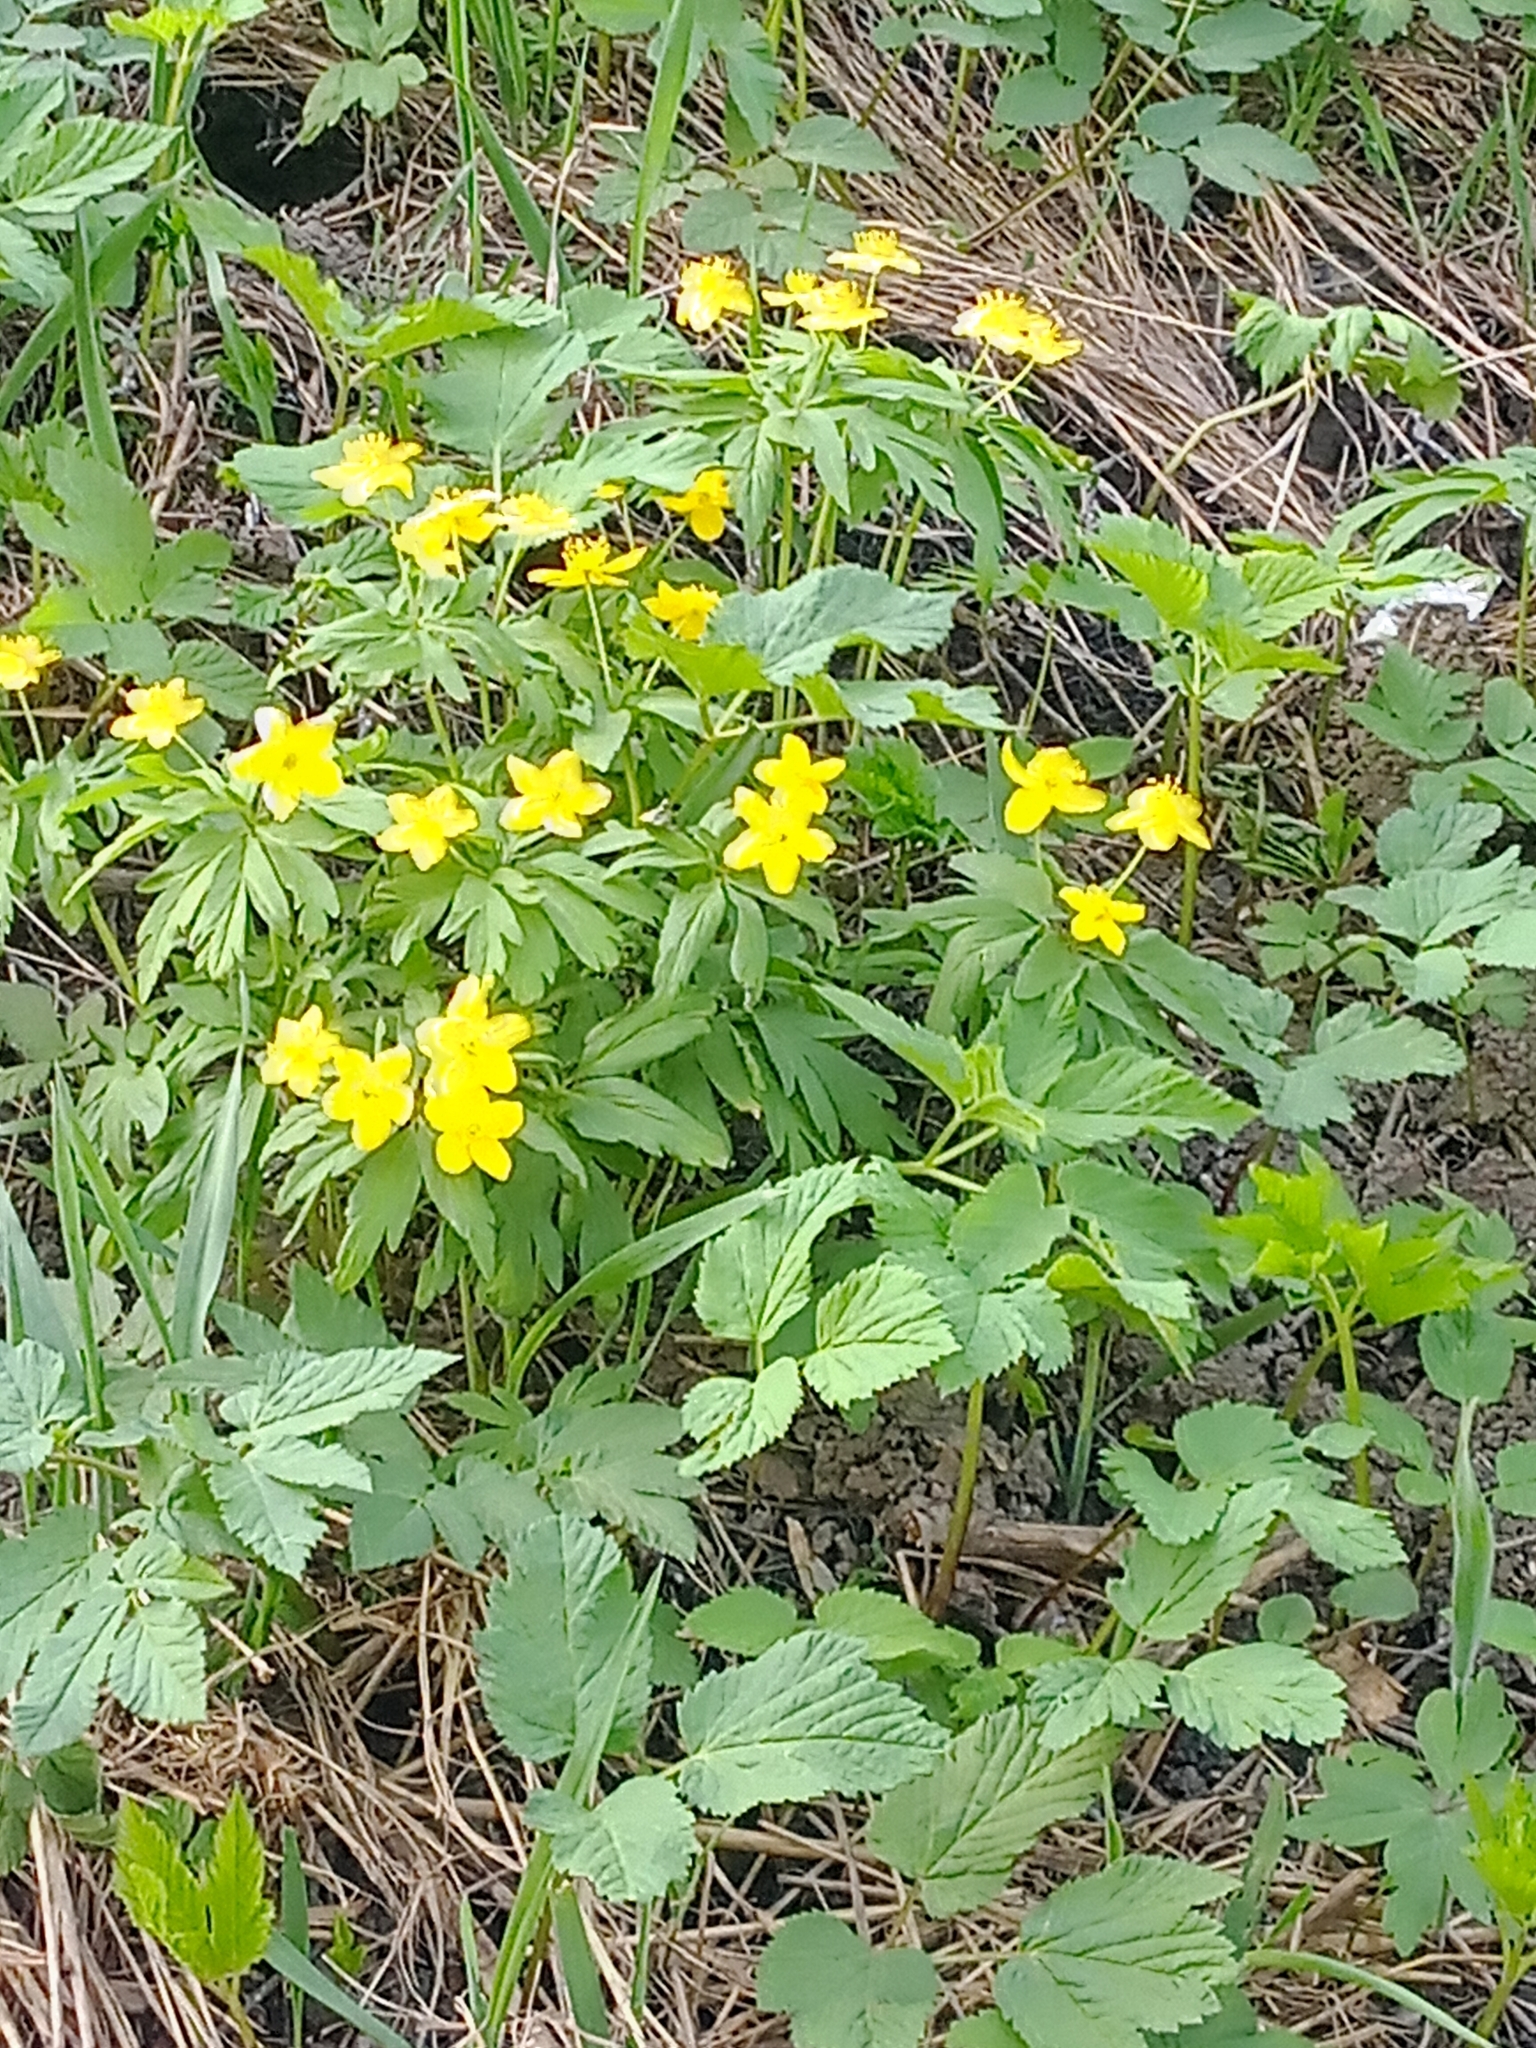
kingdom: Plantae
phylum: Tracheophyta
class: Magnoliopsida
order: Ranunculales
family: Ranunculaceae
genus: Anemone
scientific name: Anemone ranunculoides
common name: Yellow anemone
